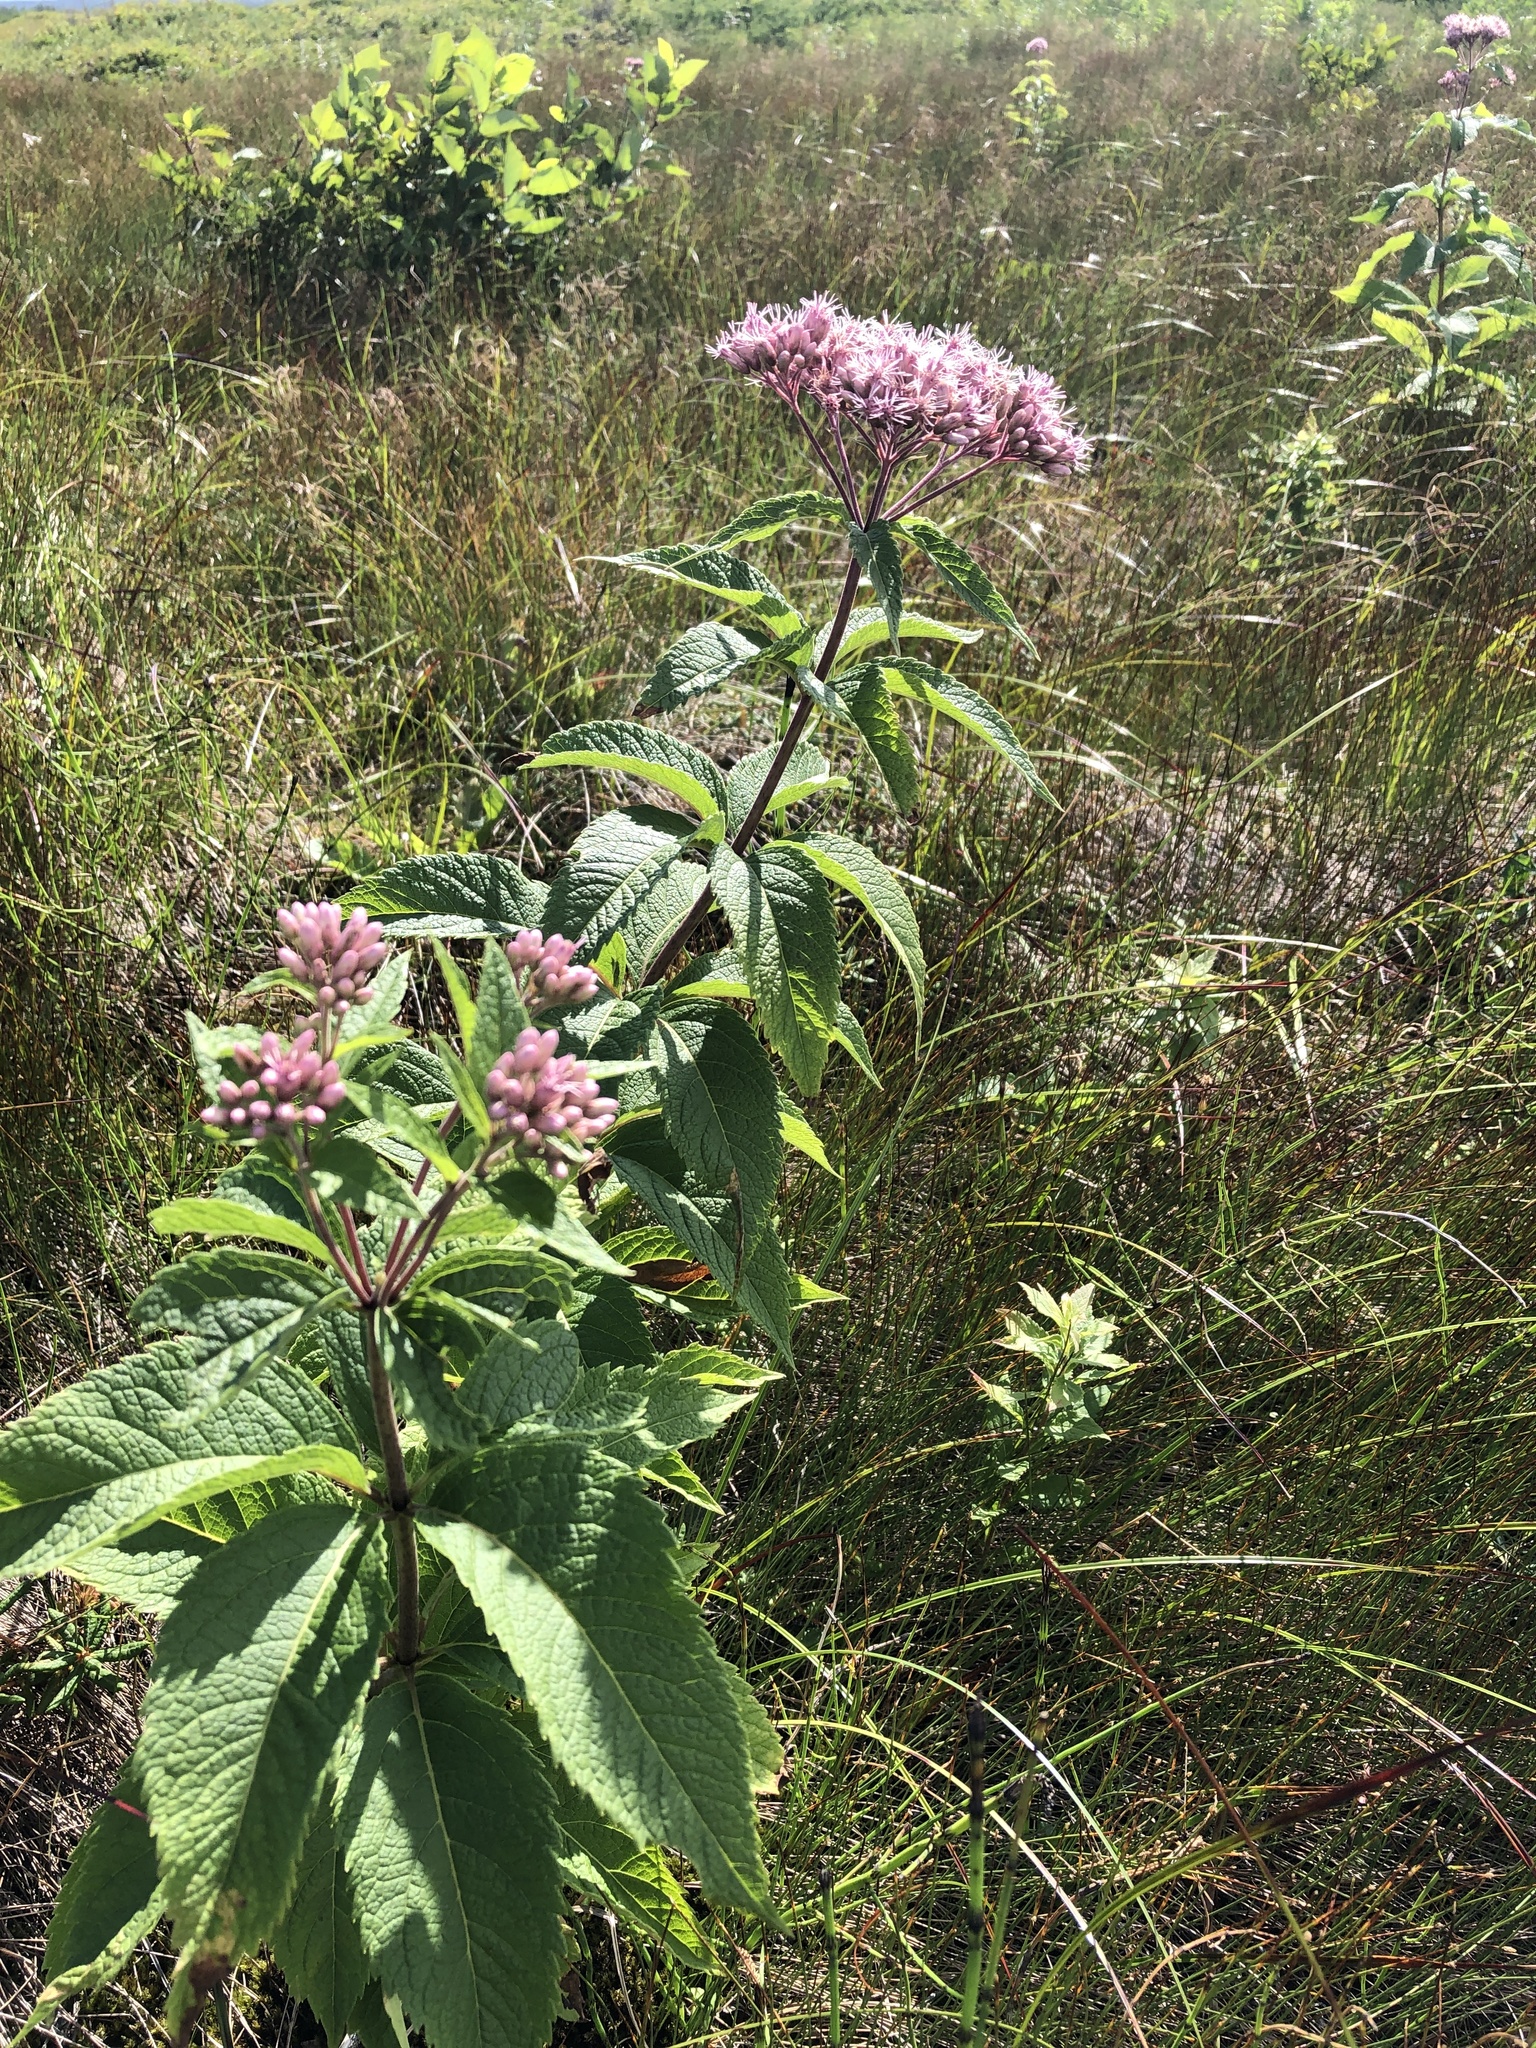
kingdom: Plantae
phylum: Tracheophyta
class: Magnoliopsida
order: Asterales
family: Asteraceae
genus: Eutrochium
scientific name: Eutrochium maculatum
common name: Spotted joe pye weed
